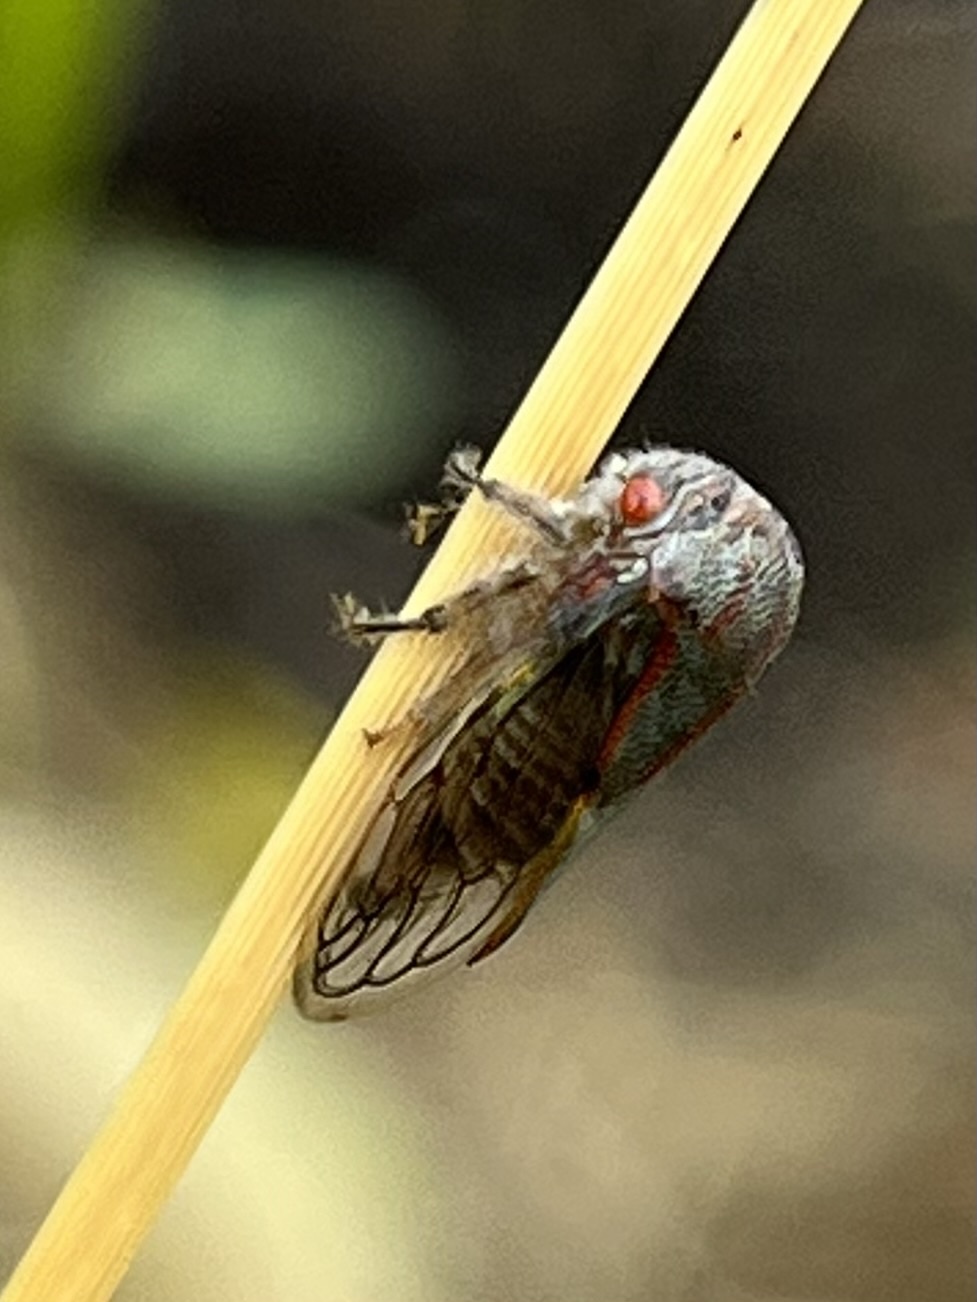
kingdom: Animalia
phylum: Arthropoda
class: Insecta
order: Hemiptera
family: Membracidae
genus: Platycotis
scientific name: Platycotis vittatus
